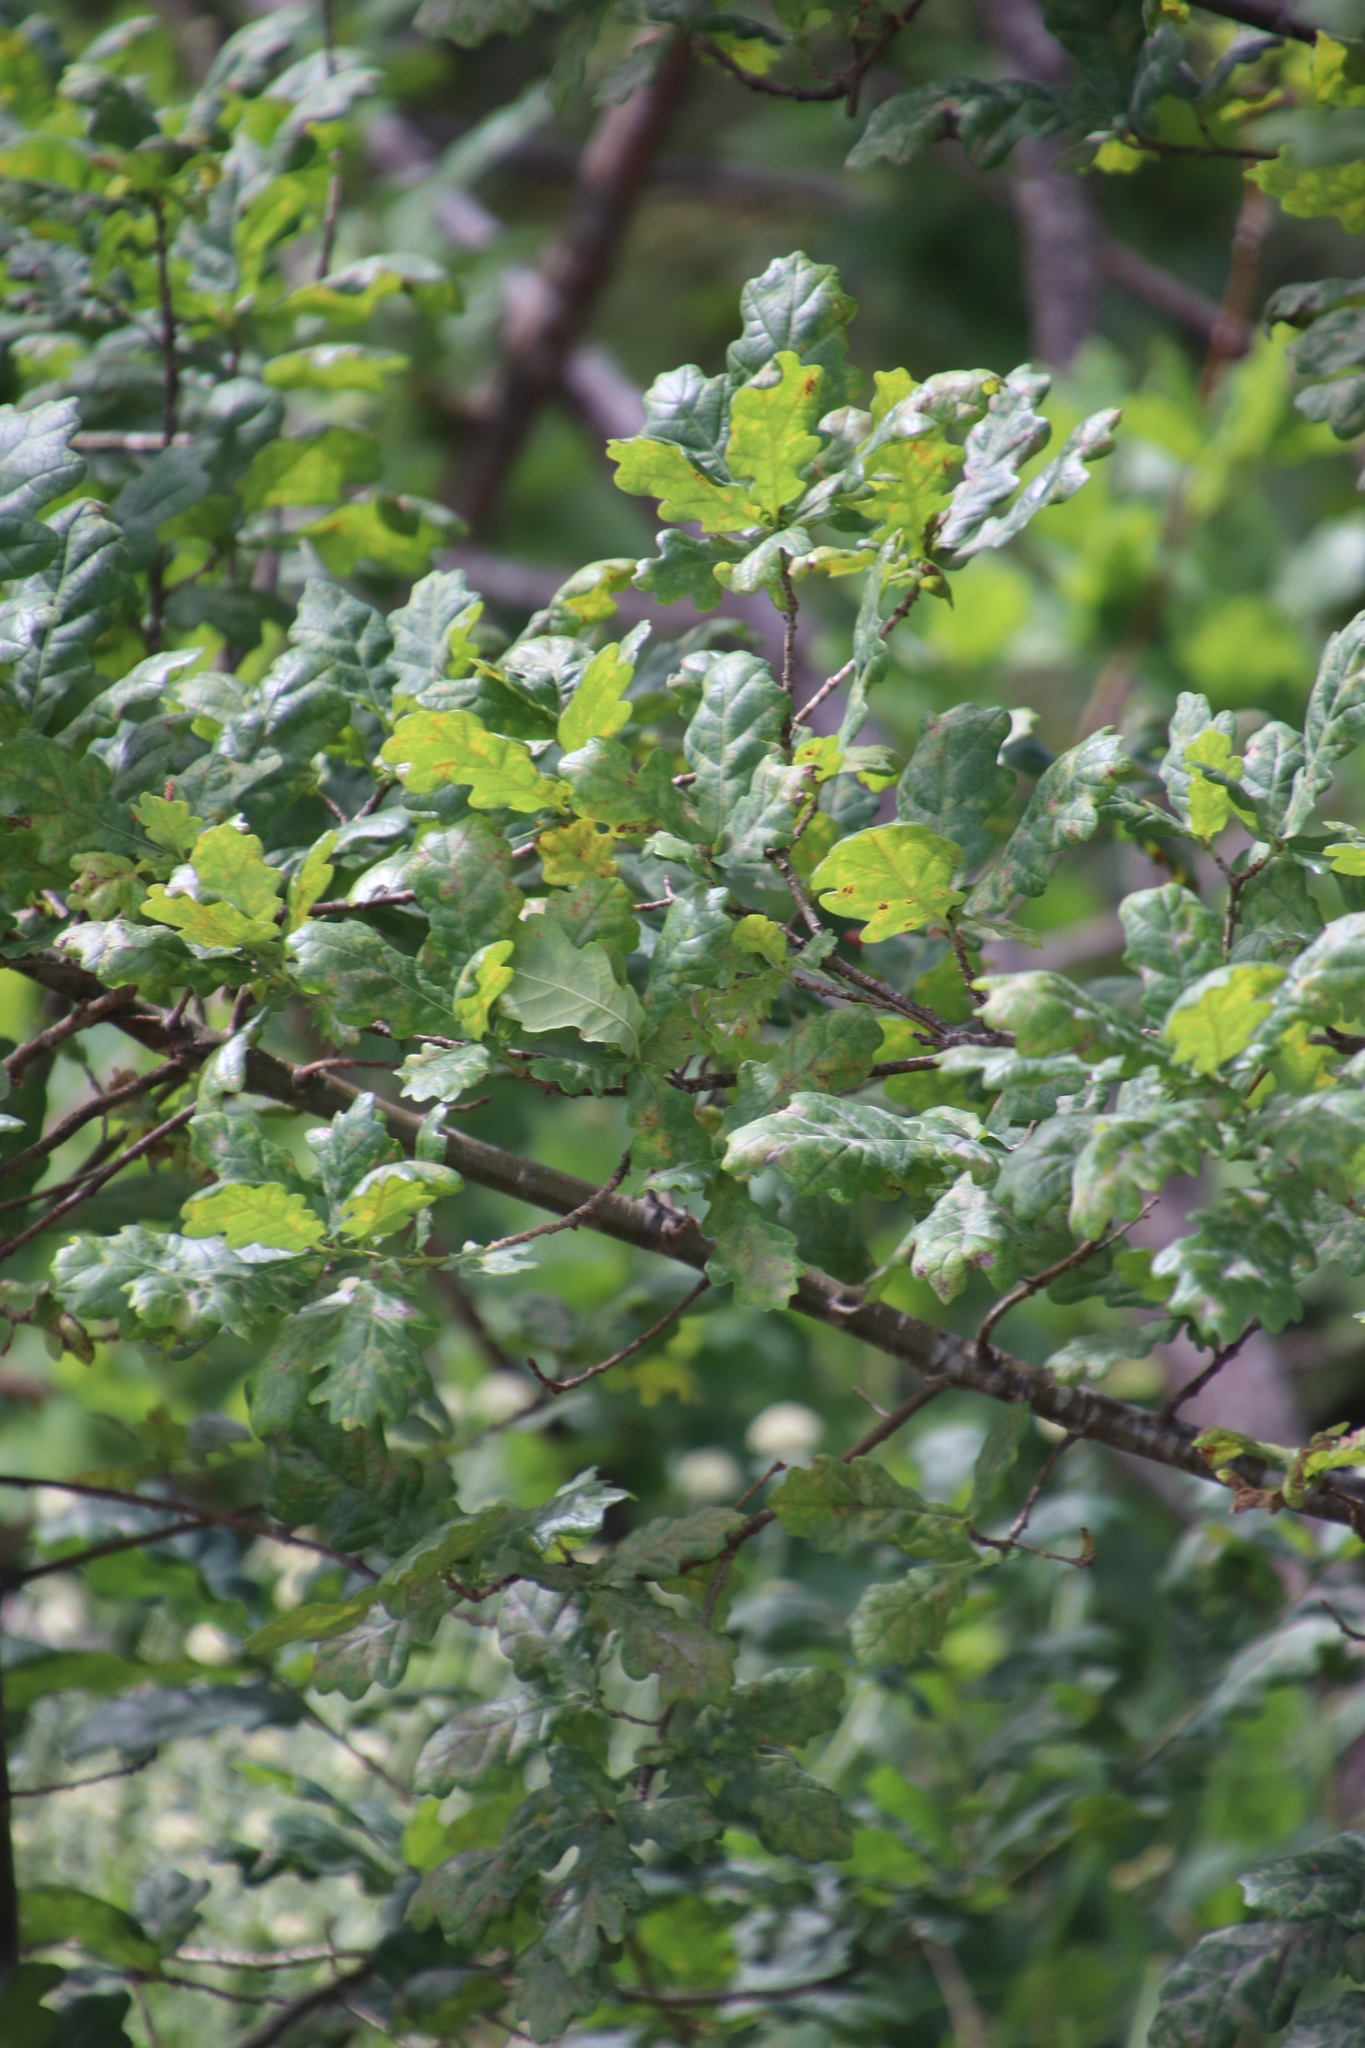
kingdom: Plantae
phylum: Tracheophyta
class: Magnoliopsida
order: Fagales
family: Fagaceae
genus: Quercus
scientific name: Quercus robur
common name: Pedunculate oak
